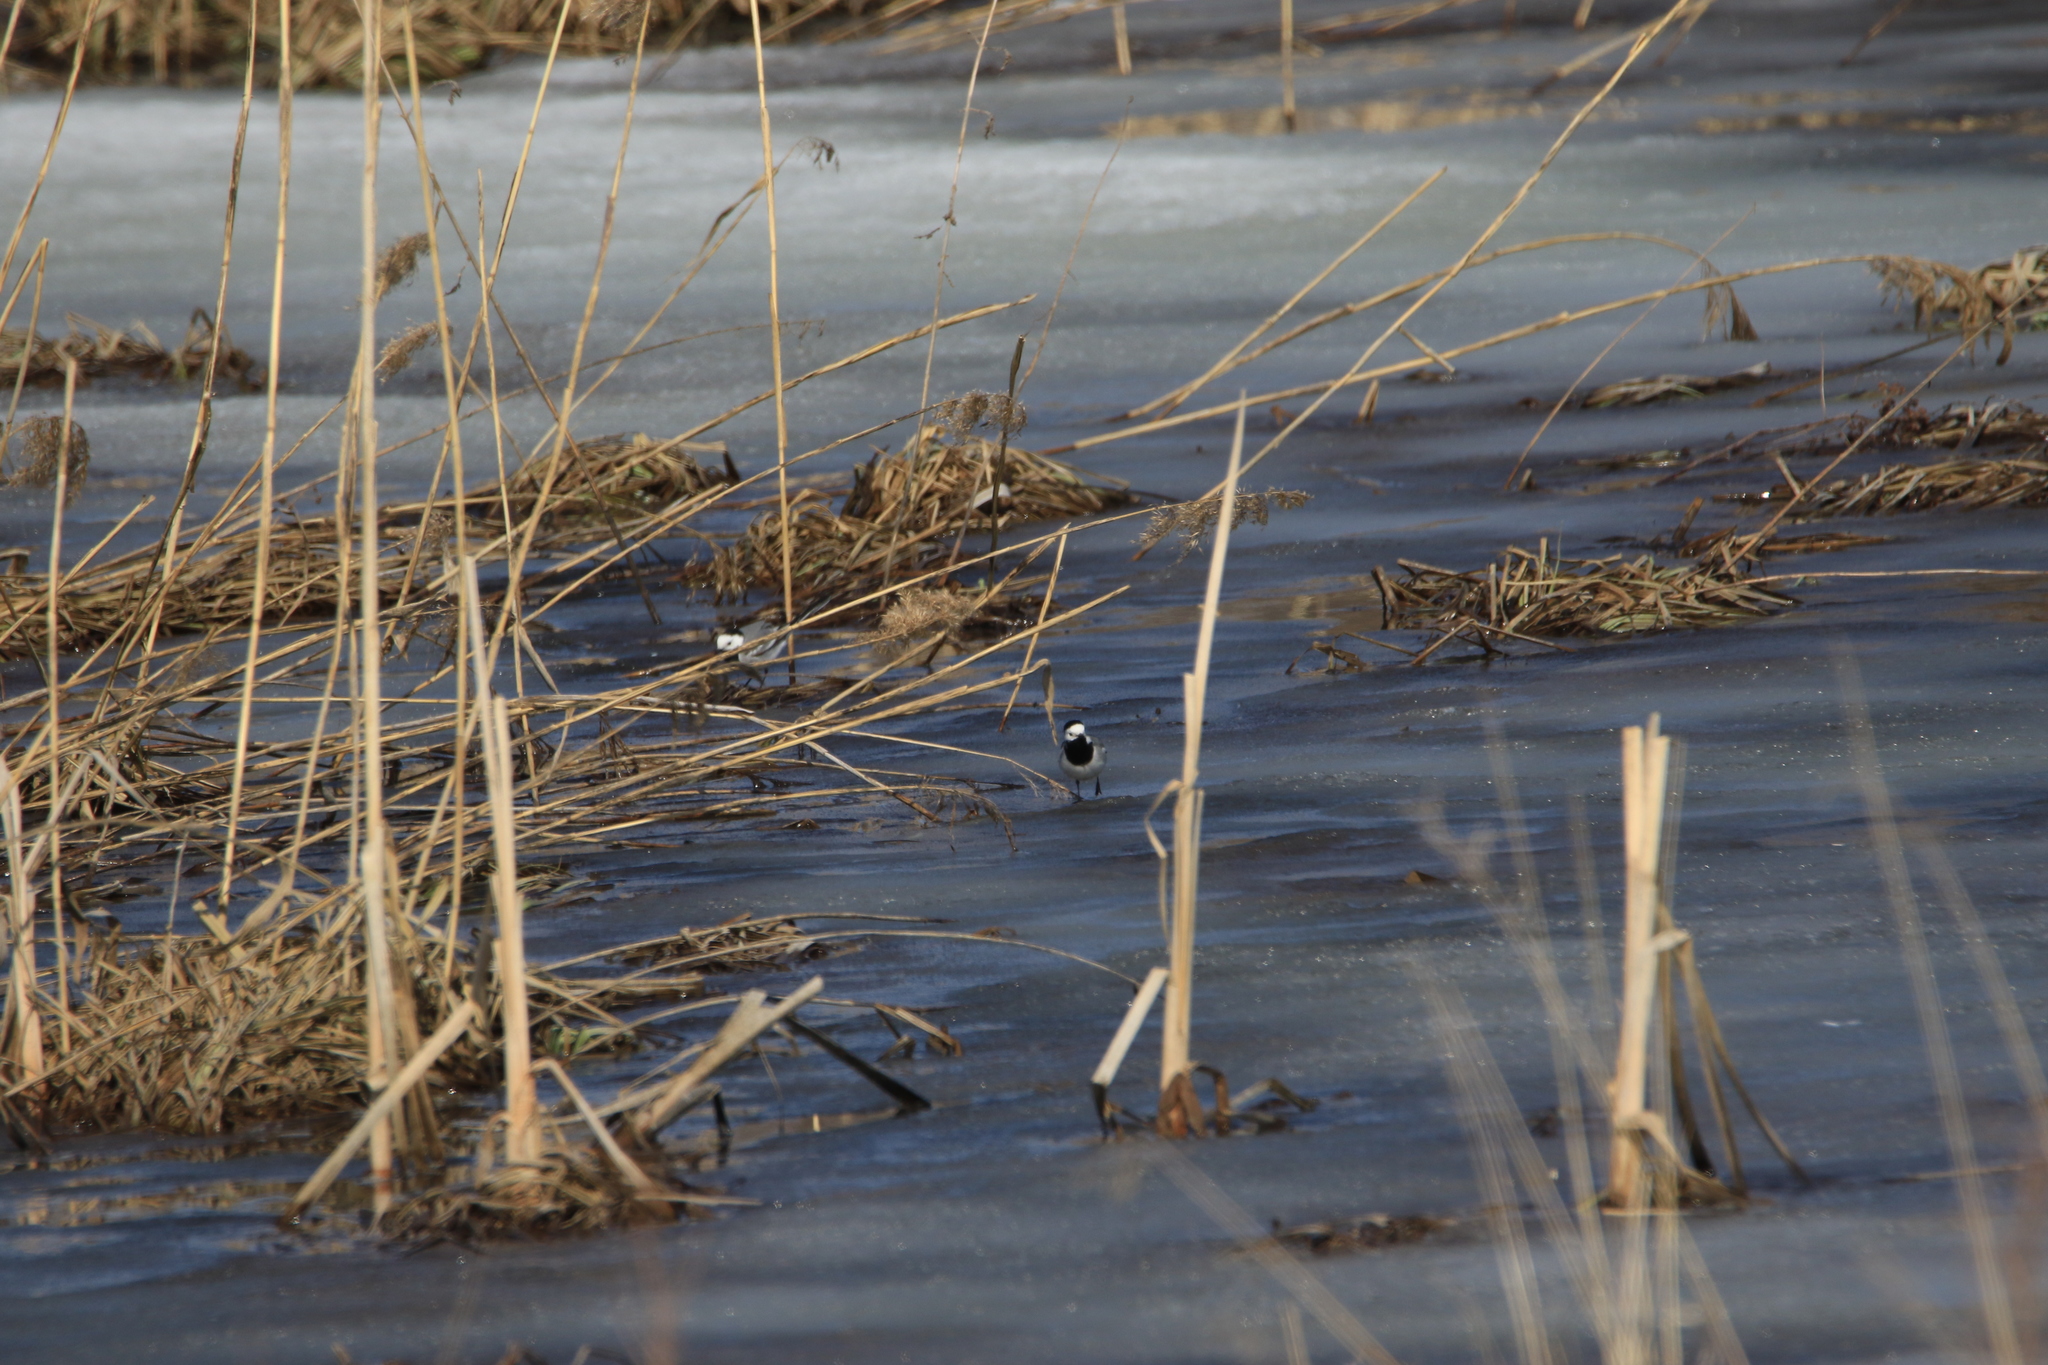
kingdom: Animalia
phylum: Chordata
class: Aves
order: Passeriformes
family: Motacillidae
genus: Motacilla
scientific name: Motacilla alba
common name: White wagtail
